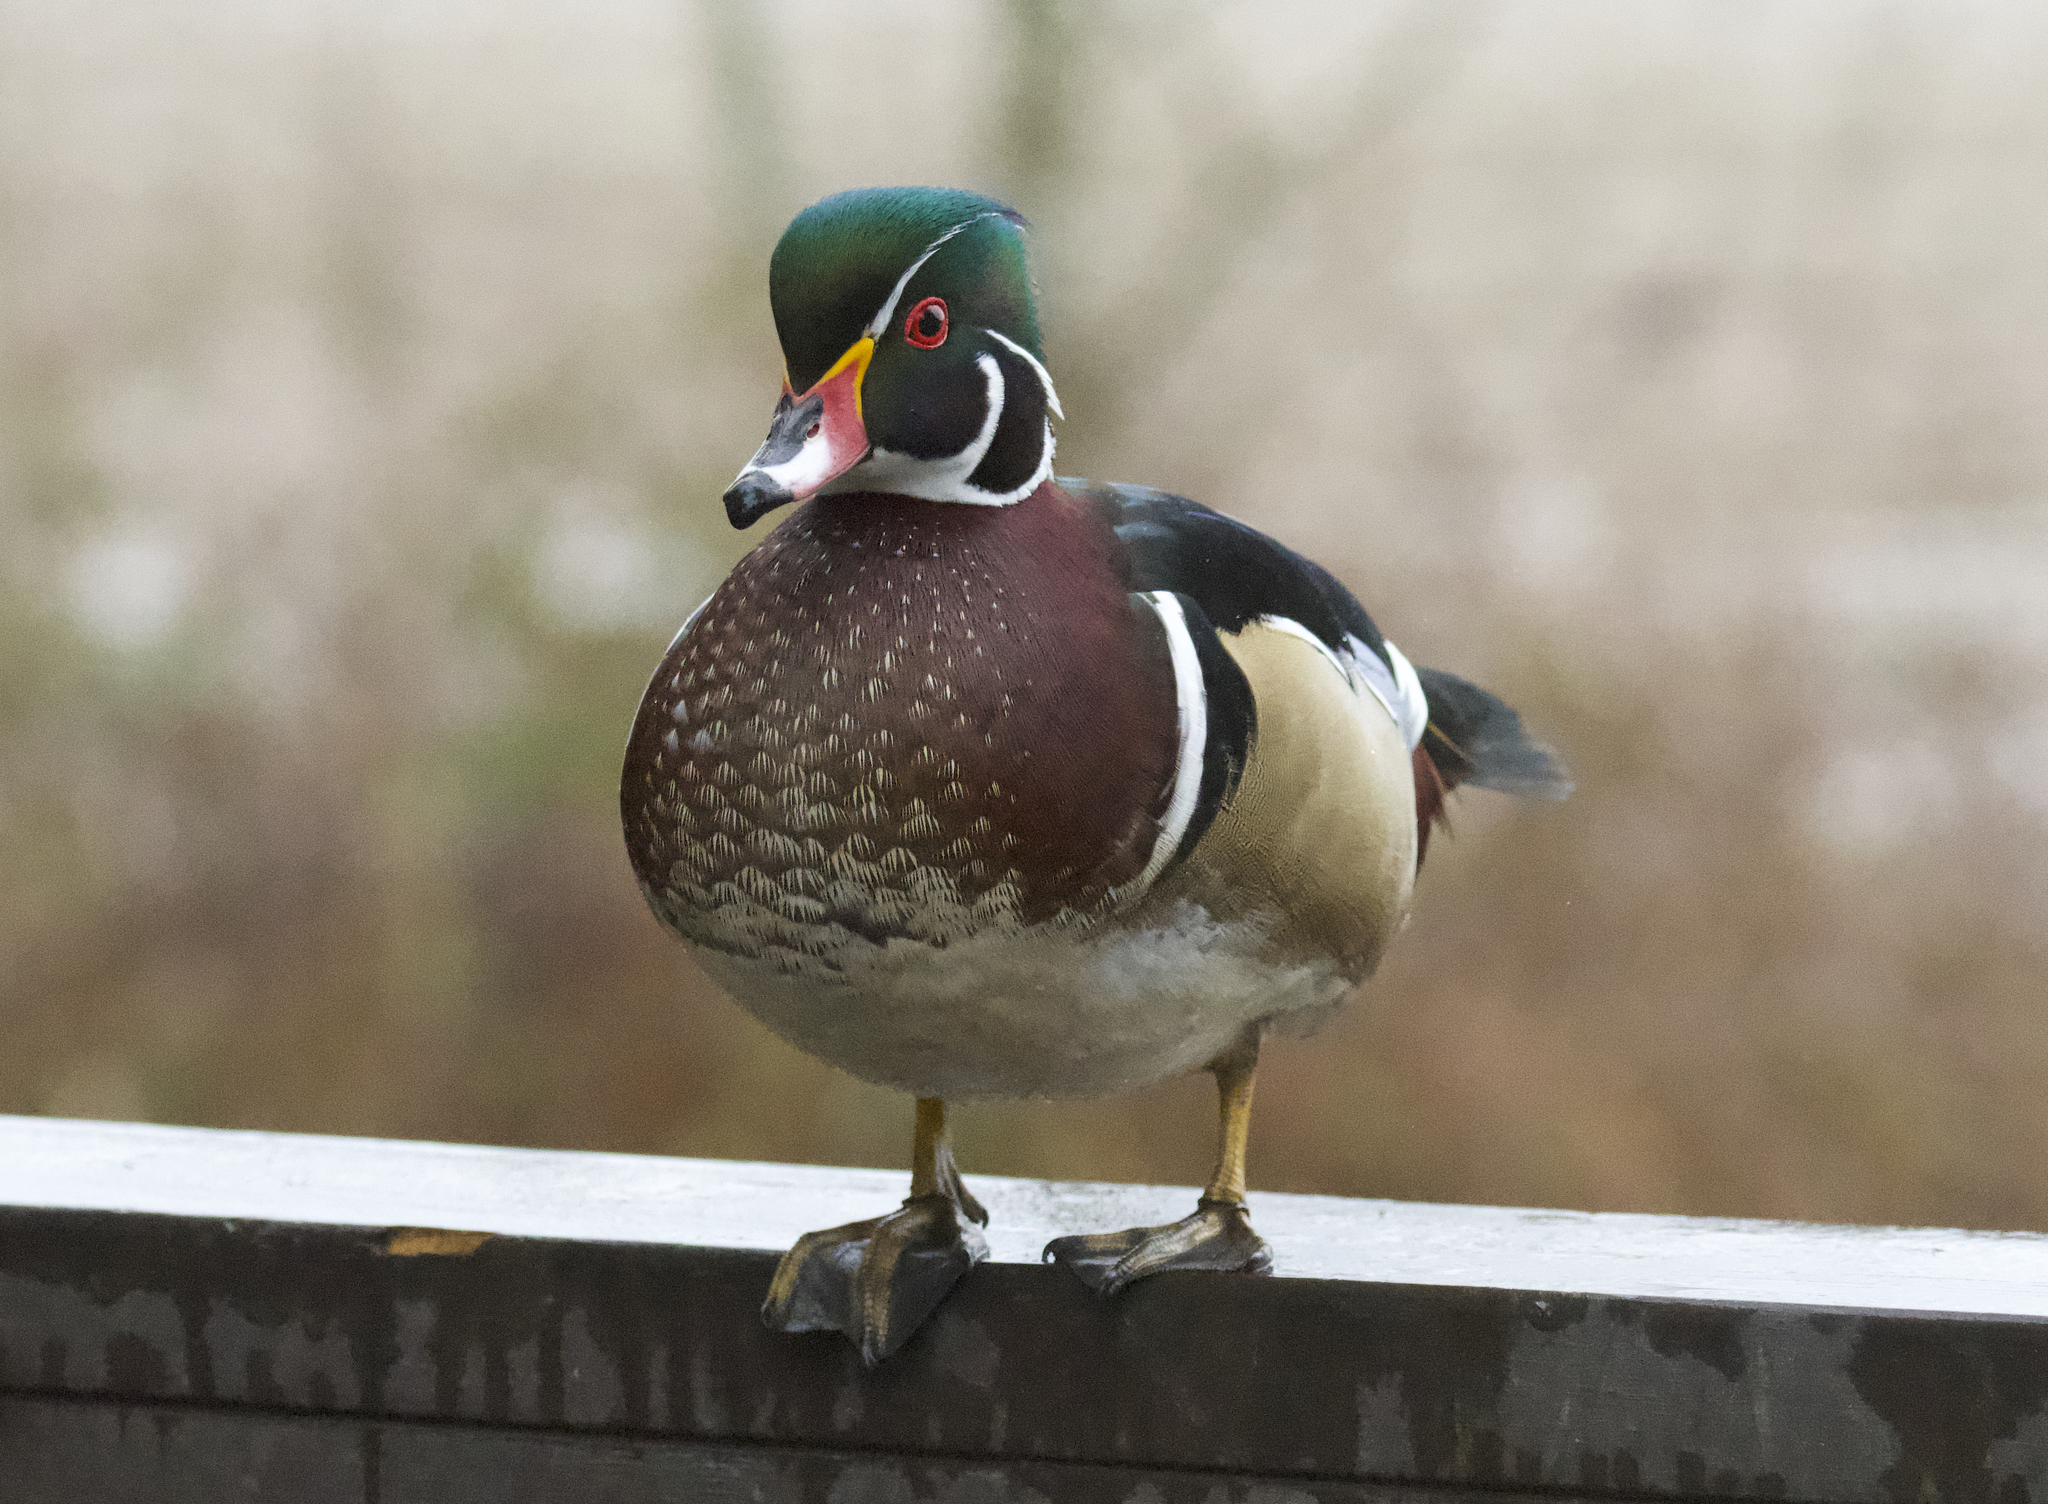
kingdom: Animalia
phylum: Chordata
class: Aves
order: Anseriformes
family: Anatidae
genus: Aix
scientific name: Aix sponsa
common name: Wood duck
